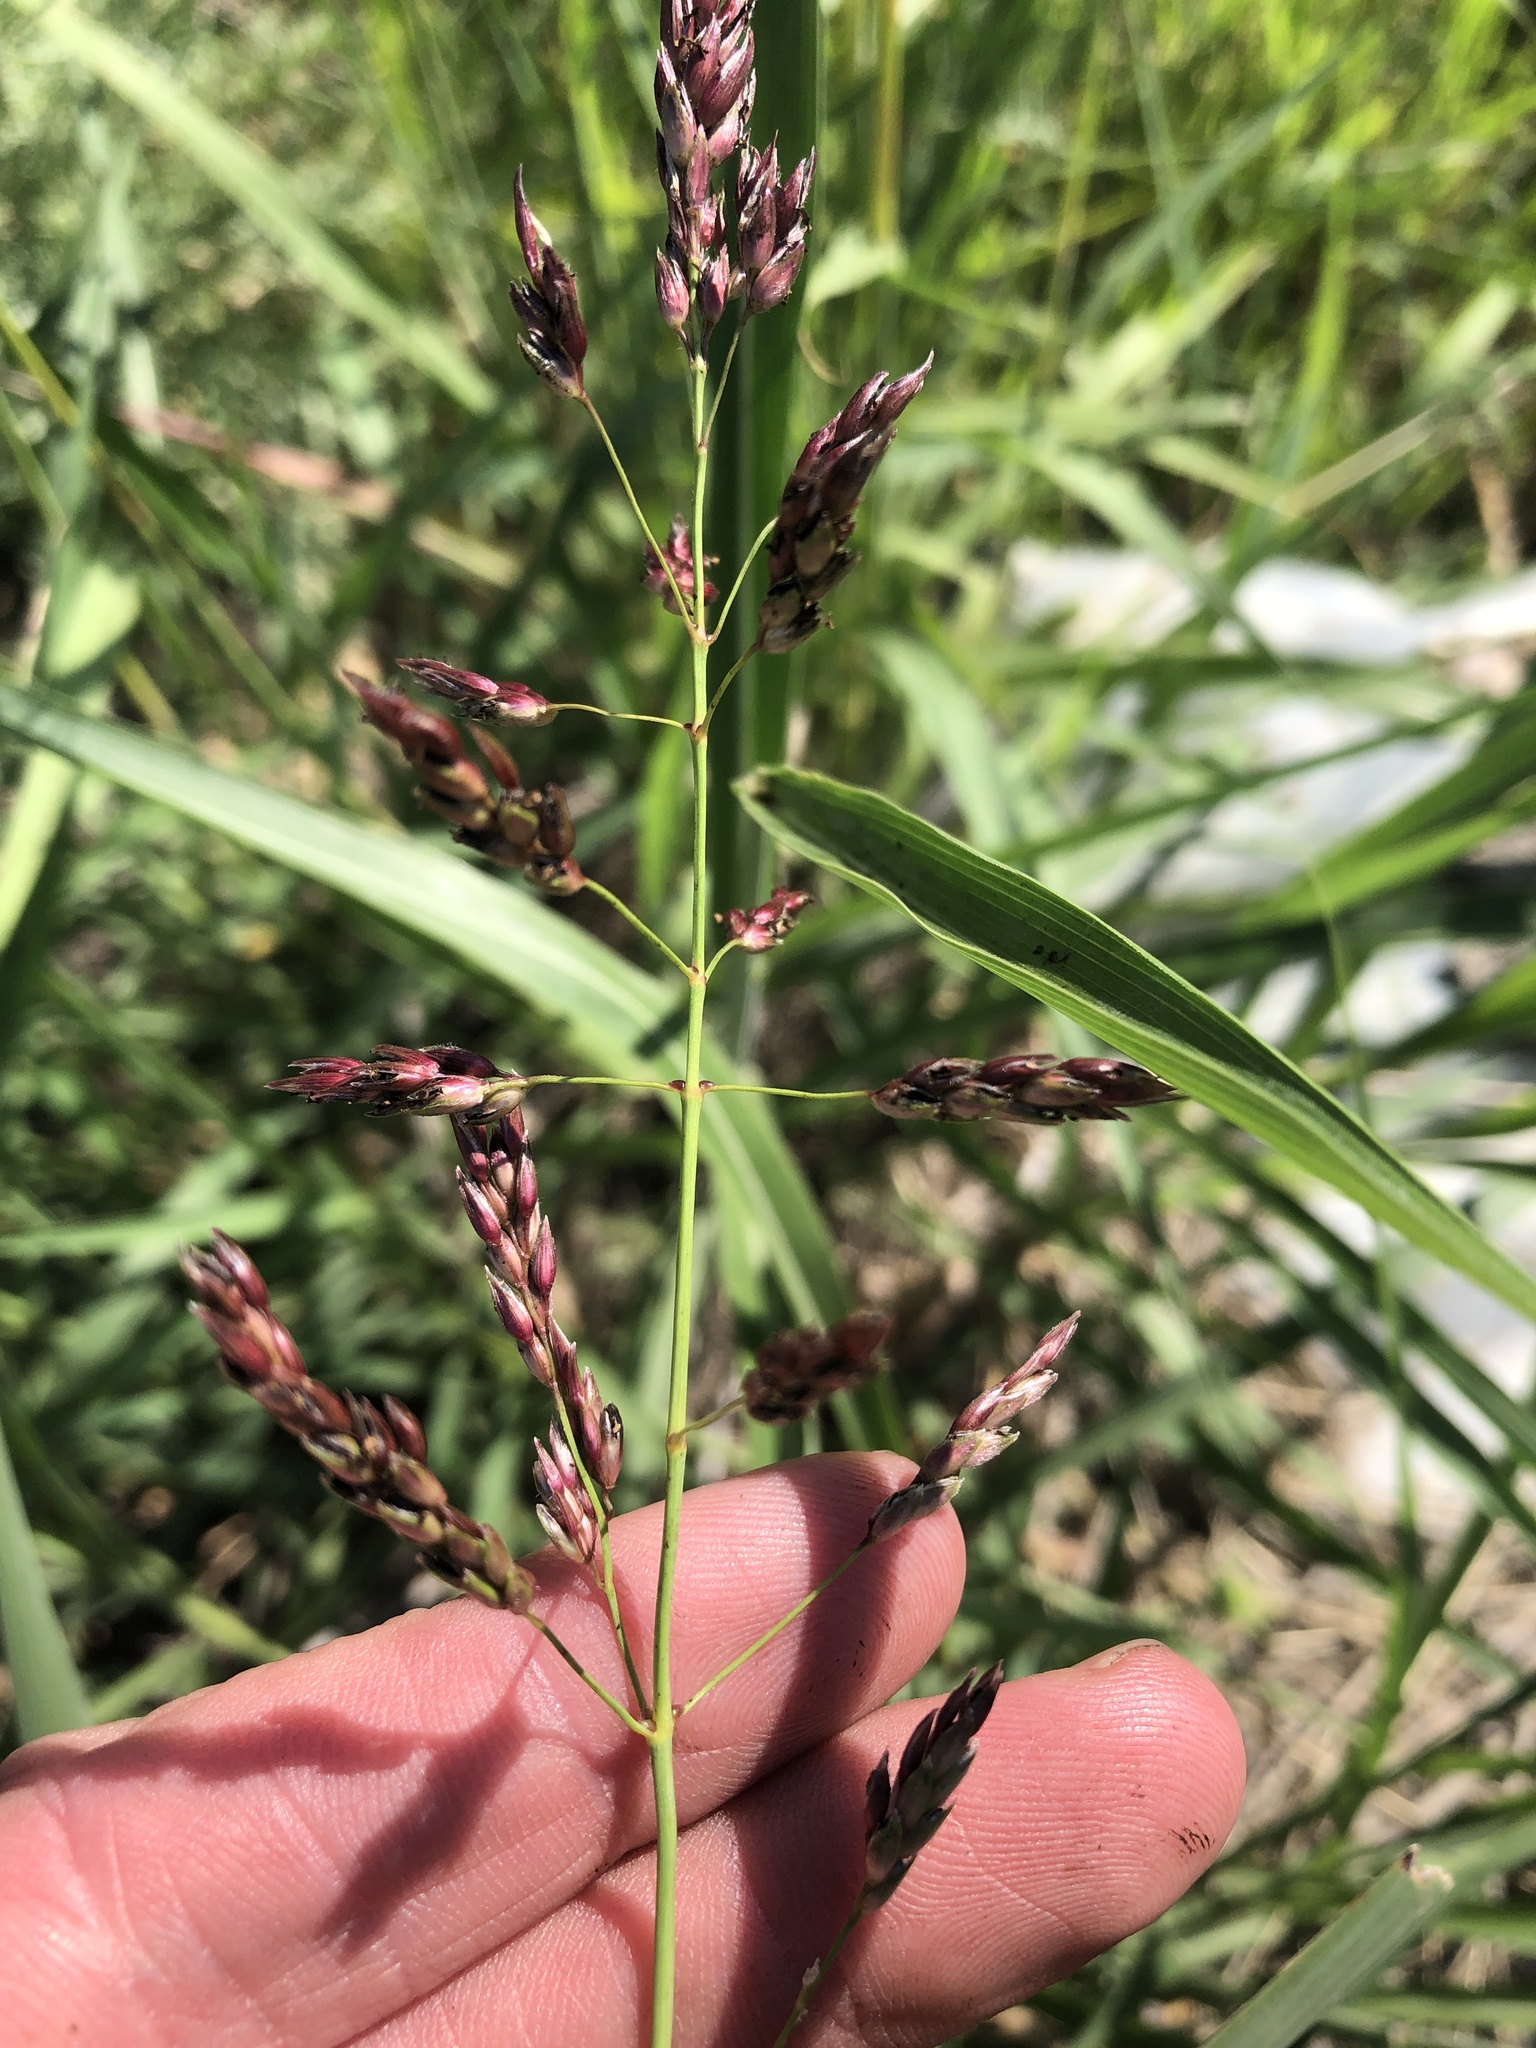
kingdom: Plantae
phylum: Tracheophyta
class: Liliopsida
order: Poales
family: Poaceae
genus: Sorghum
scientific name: Sorghum halepense
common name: Johnson-grass
